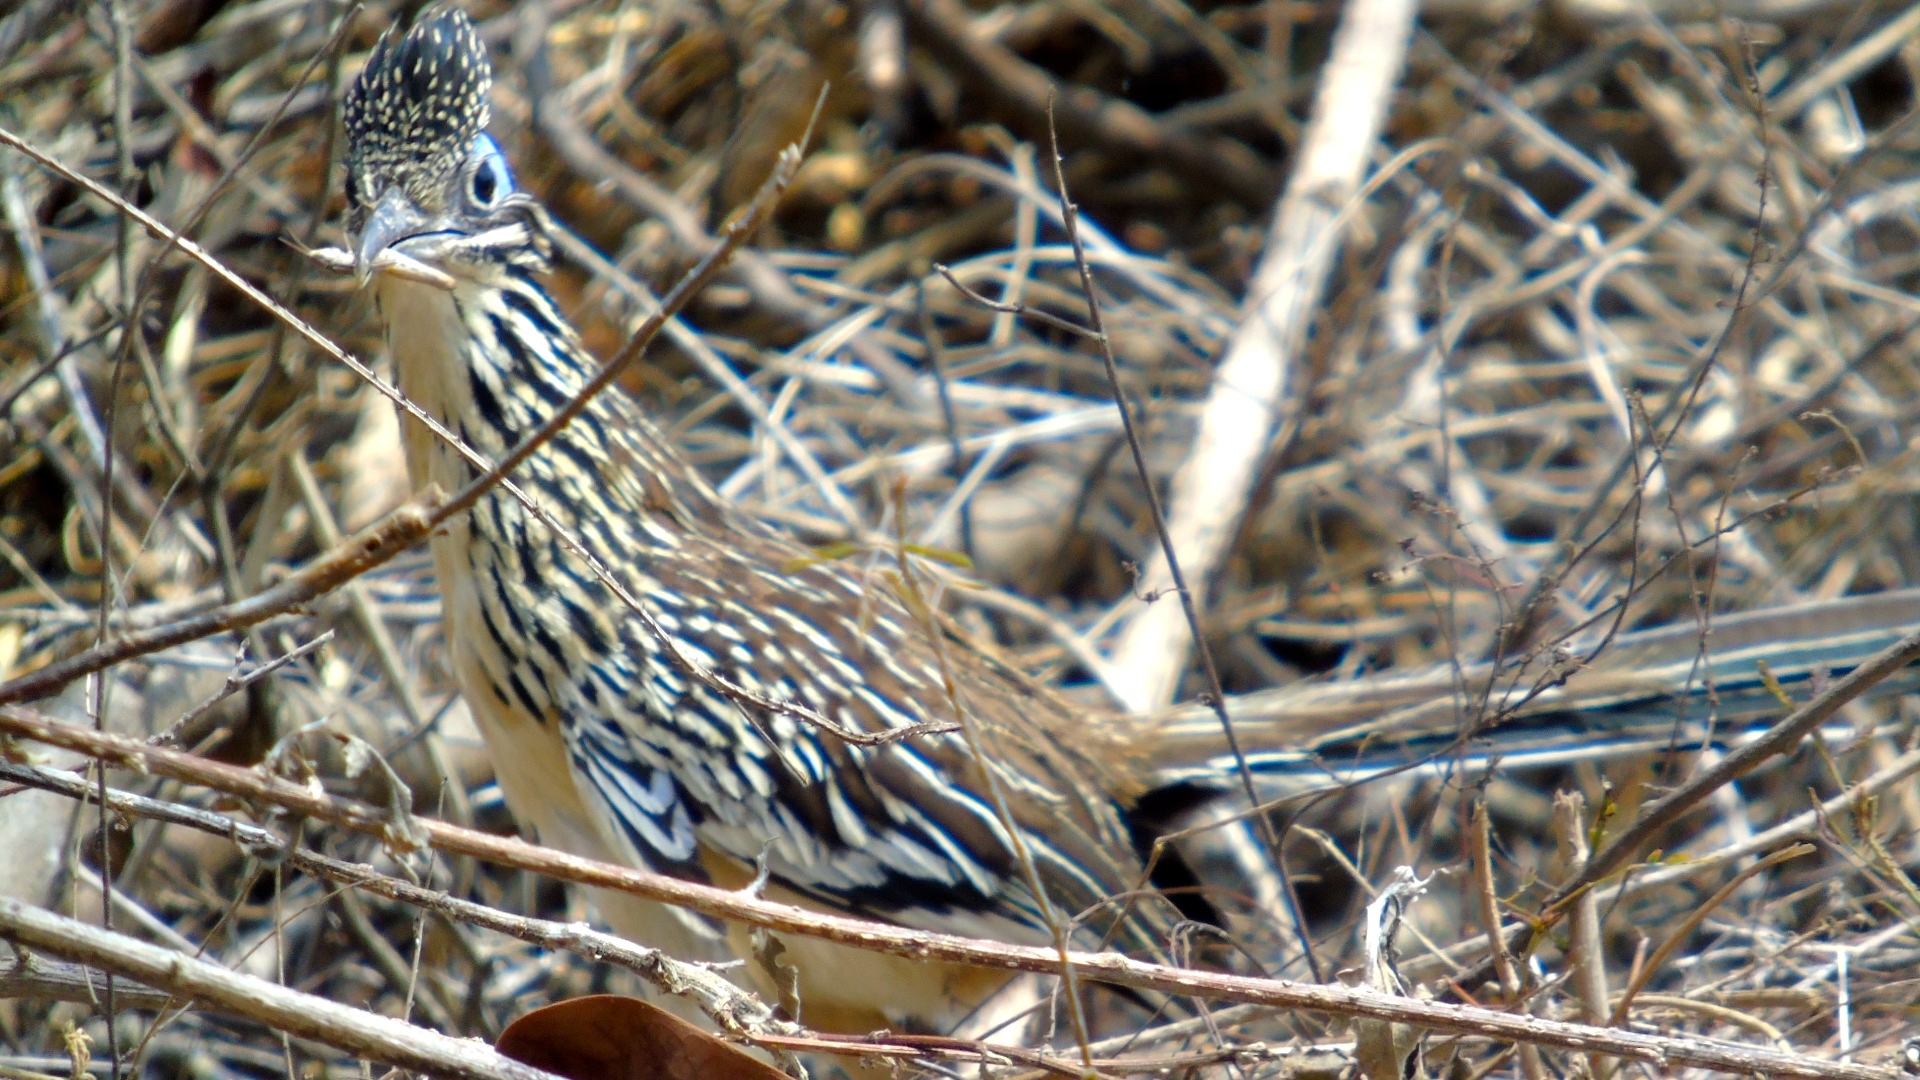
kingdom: Animalia
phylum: Chordata
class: Aves
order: Cuculiformes
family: Cuculidae
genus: Geococcyx
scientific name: Geococcyx velox
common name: Lesser roadrunner
